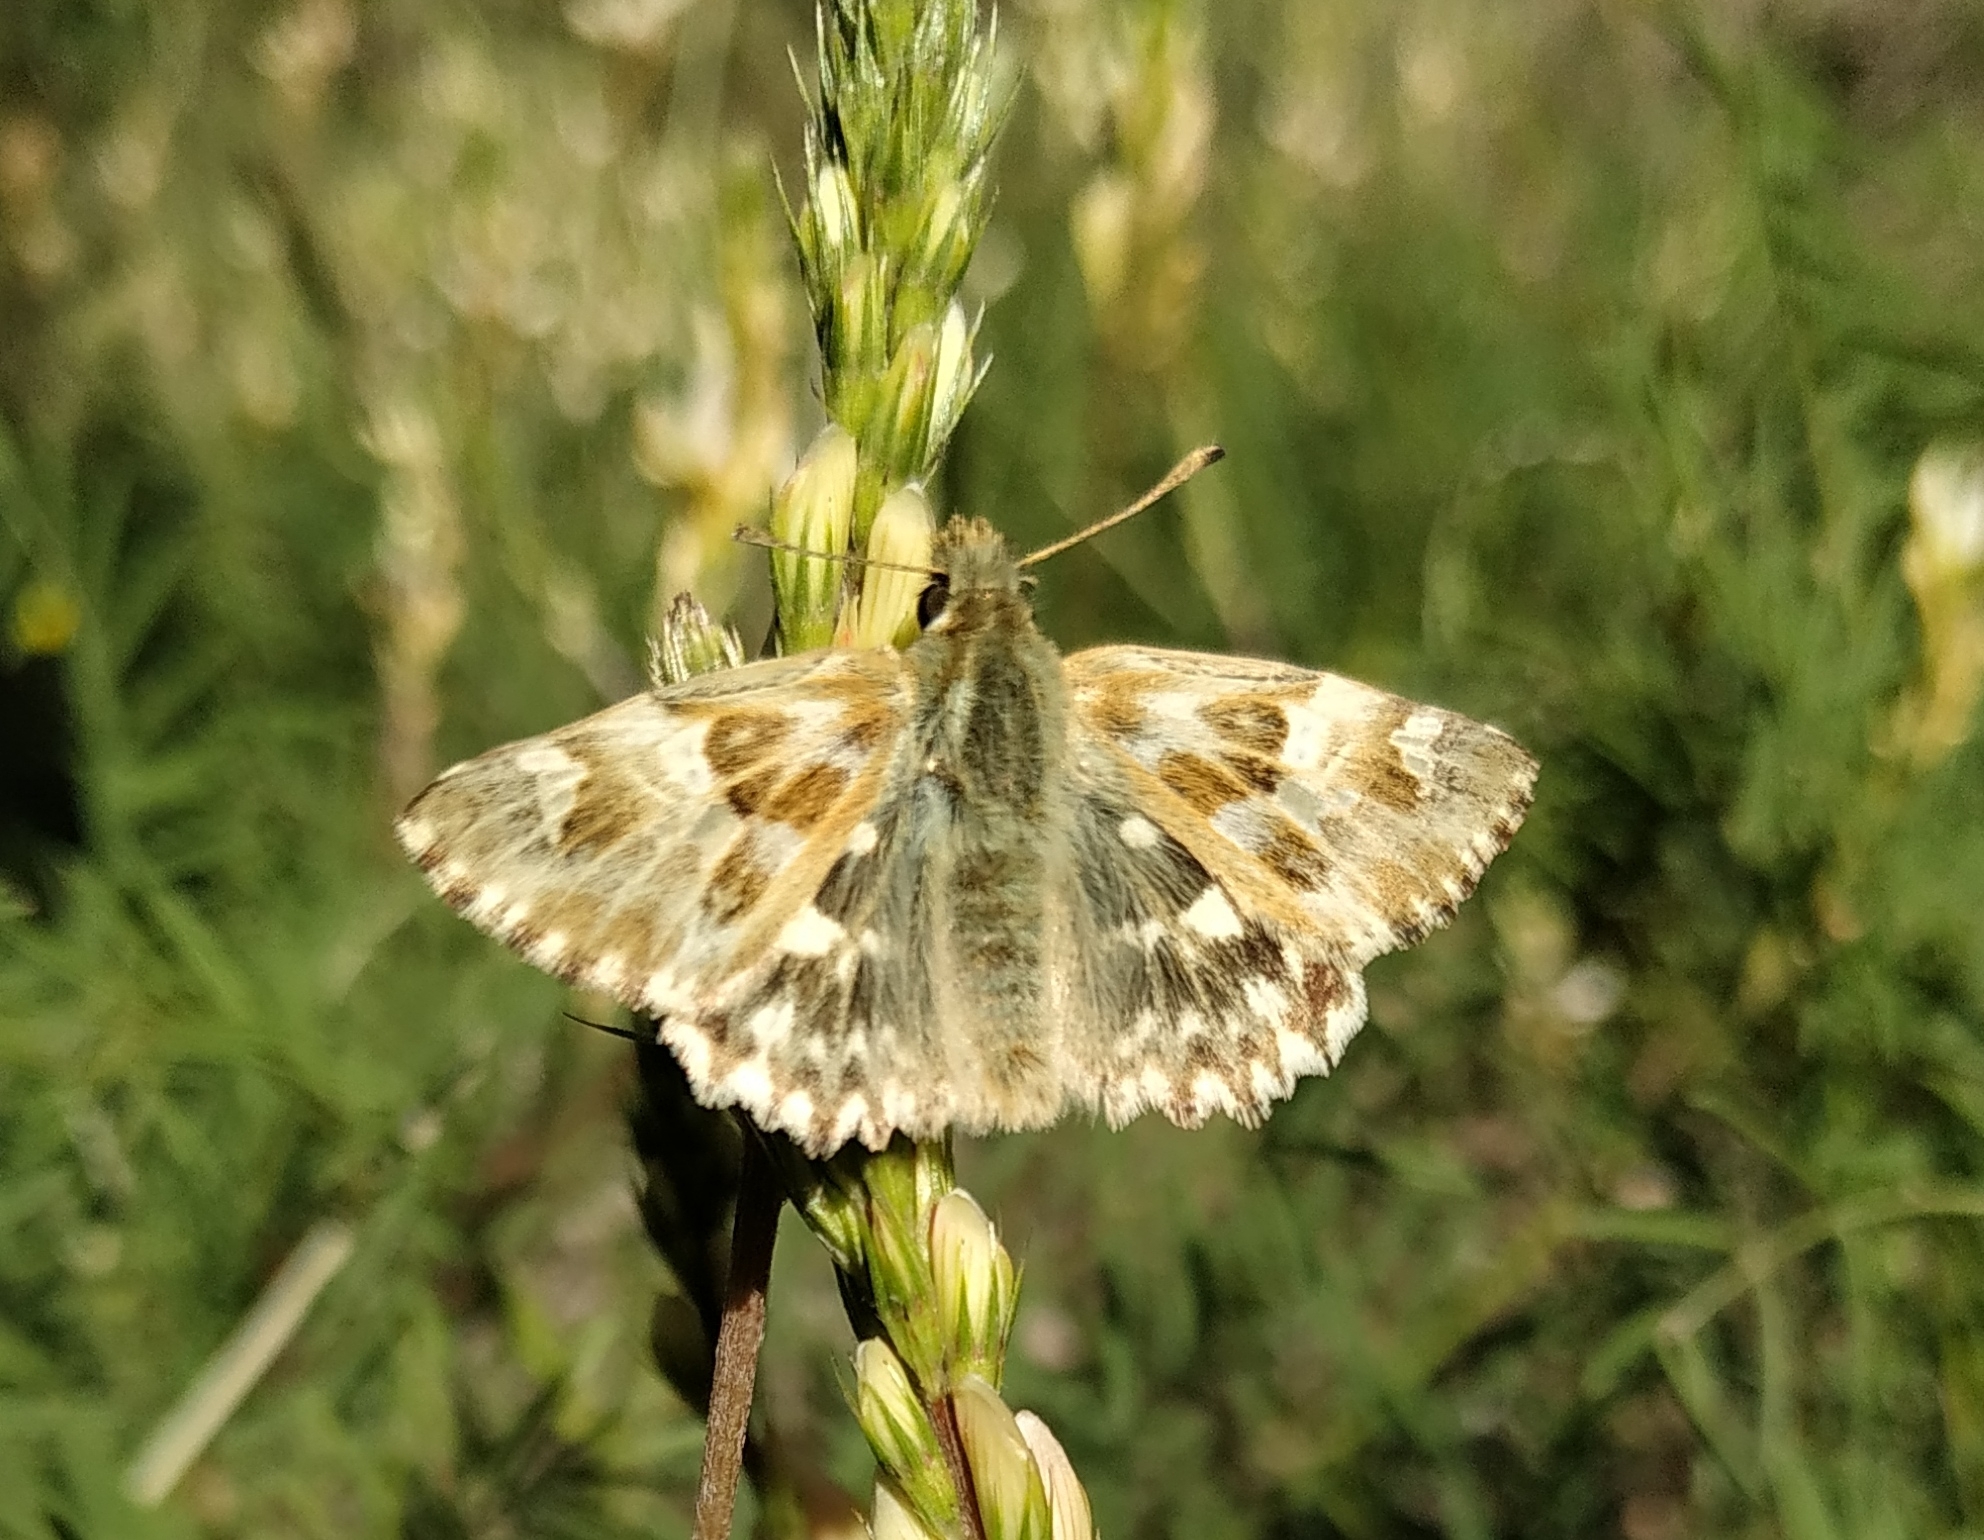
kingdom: Animalia
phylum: Arthropoda
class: Insecta
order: Lepidoptera
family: Hesperiidae
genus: Carcharodus
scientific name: Carcharodus lavatherae
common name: Marbled skipper
